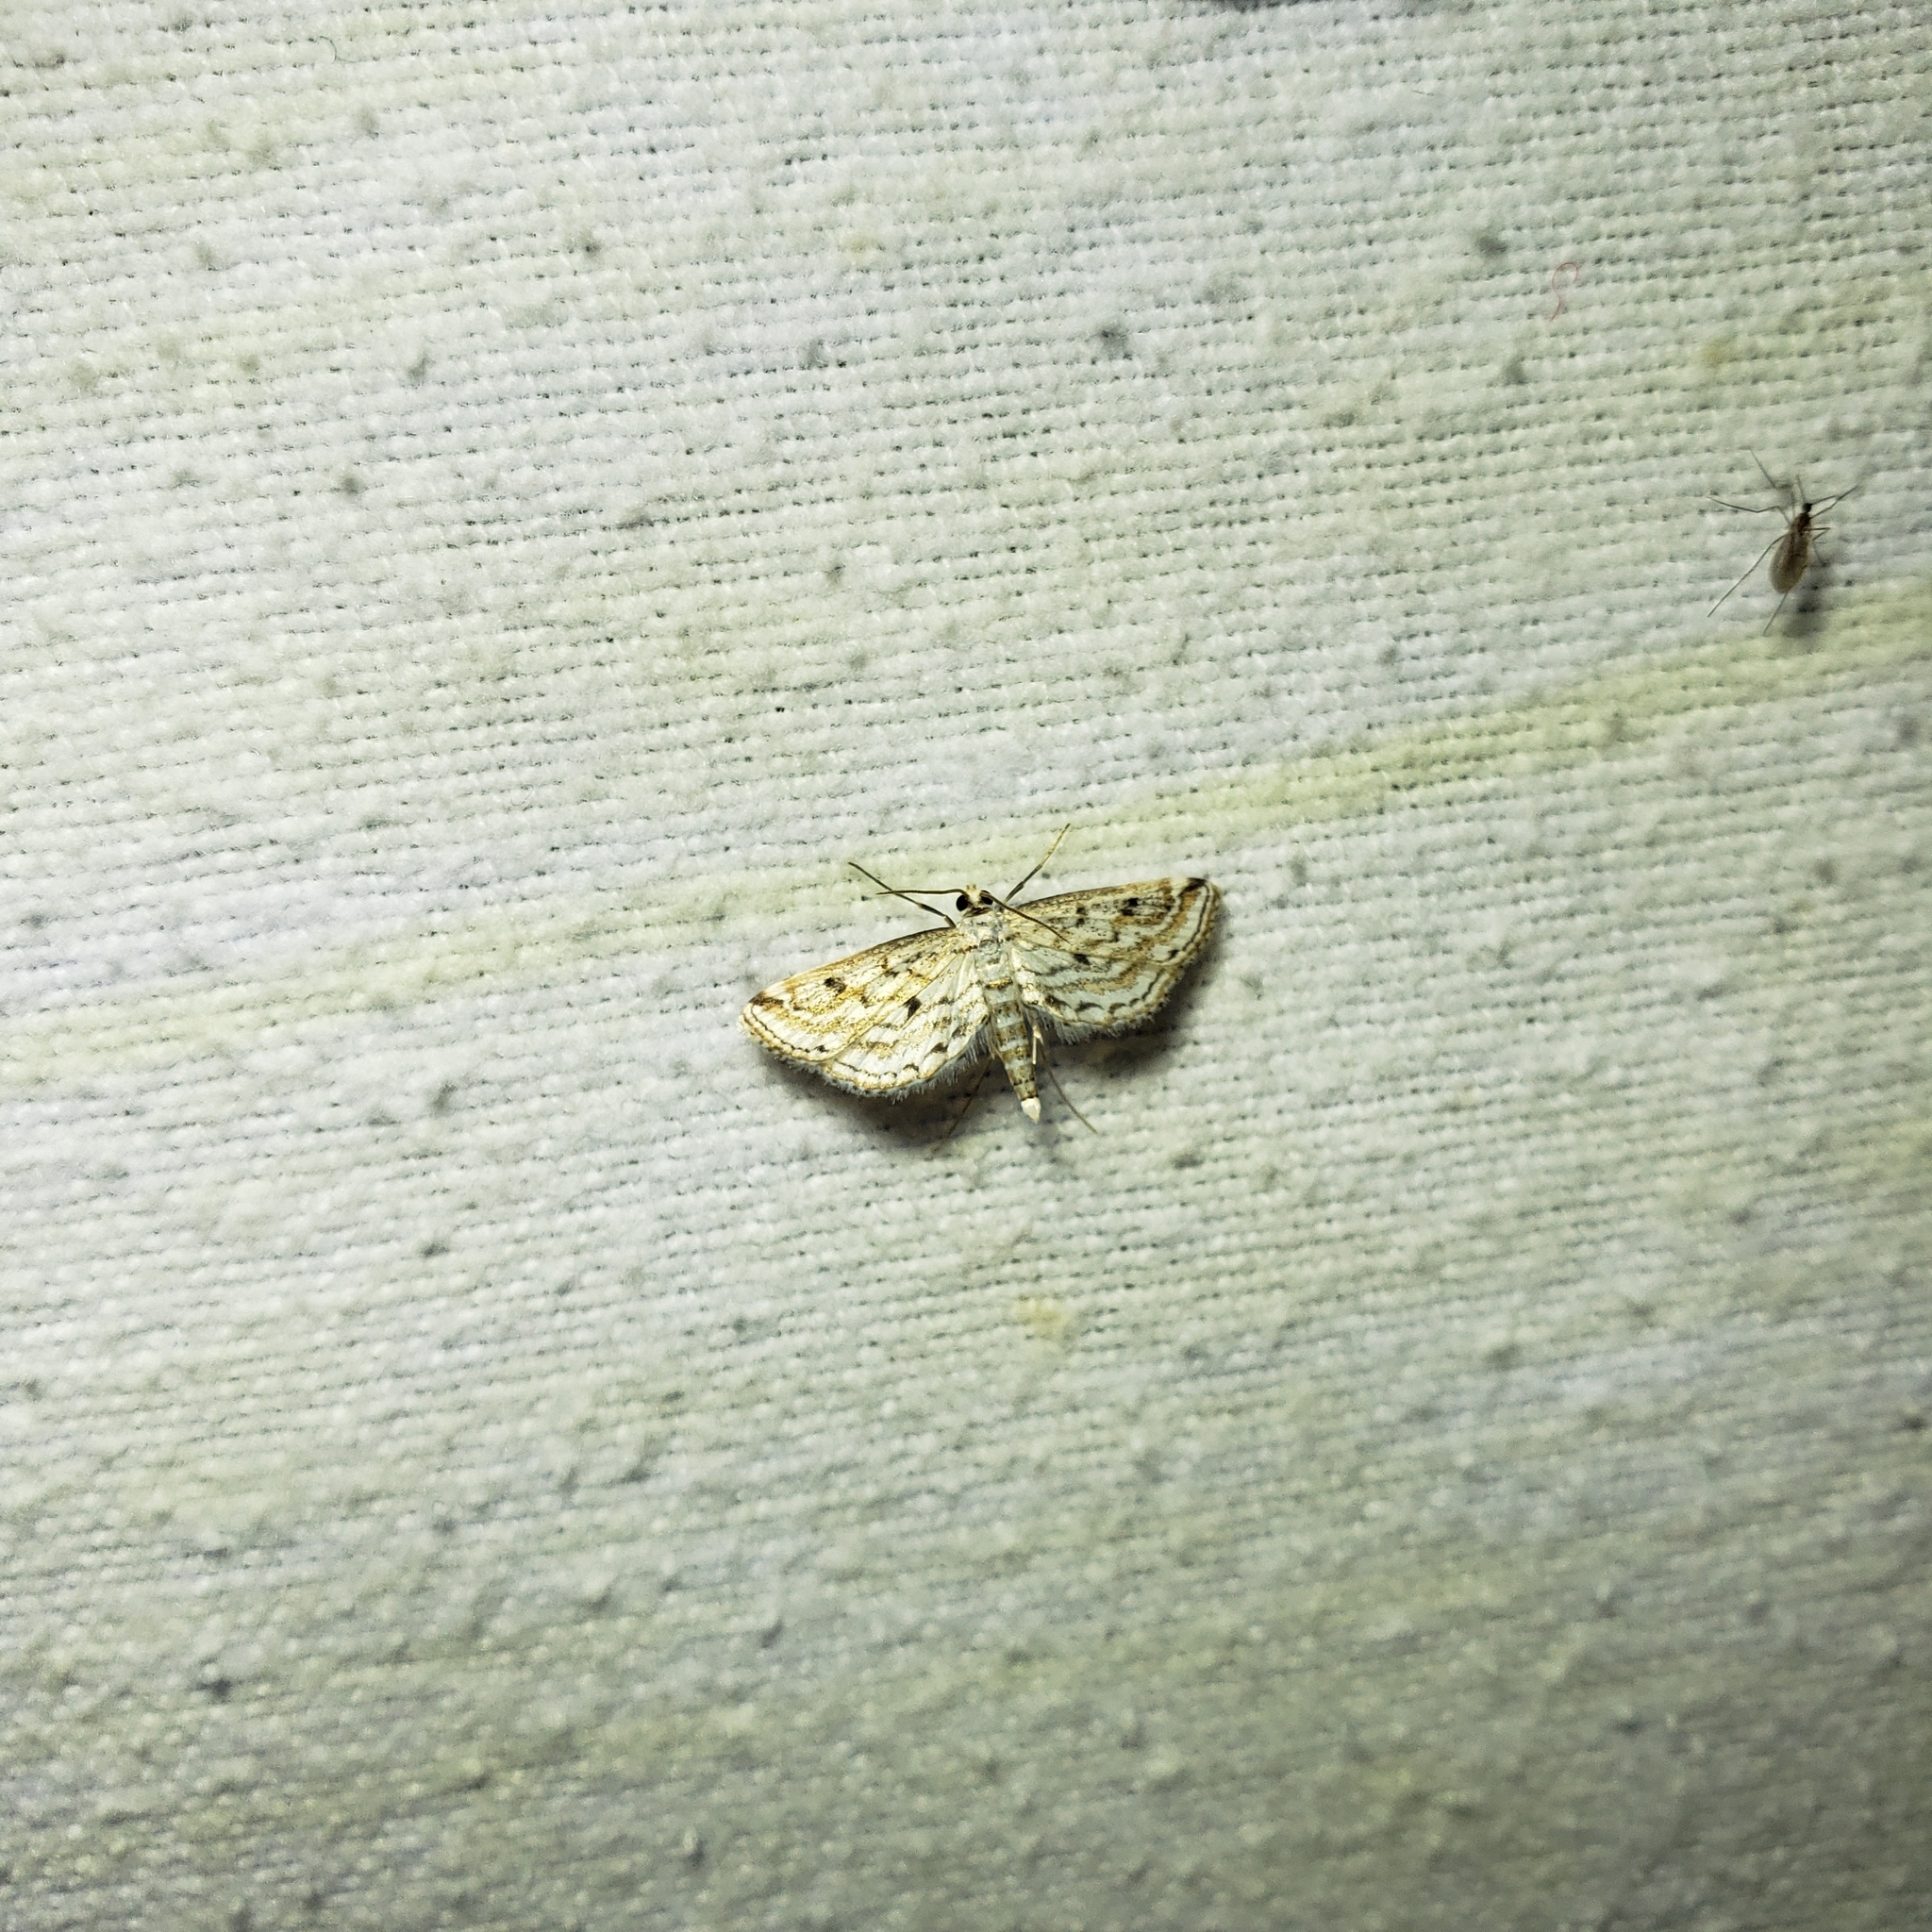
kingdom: Animalia
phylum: Arthropoda
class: Insecta
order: Lepidoptera
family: Crambidae
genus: Parapoynx
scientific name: Parapoynx allionealis
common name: Bladderwort casemaker
